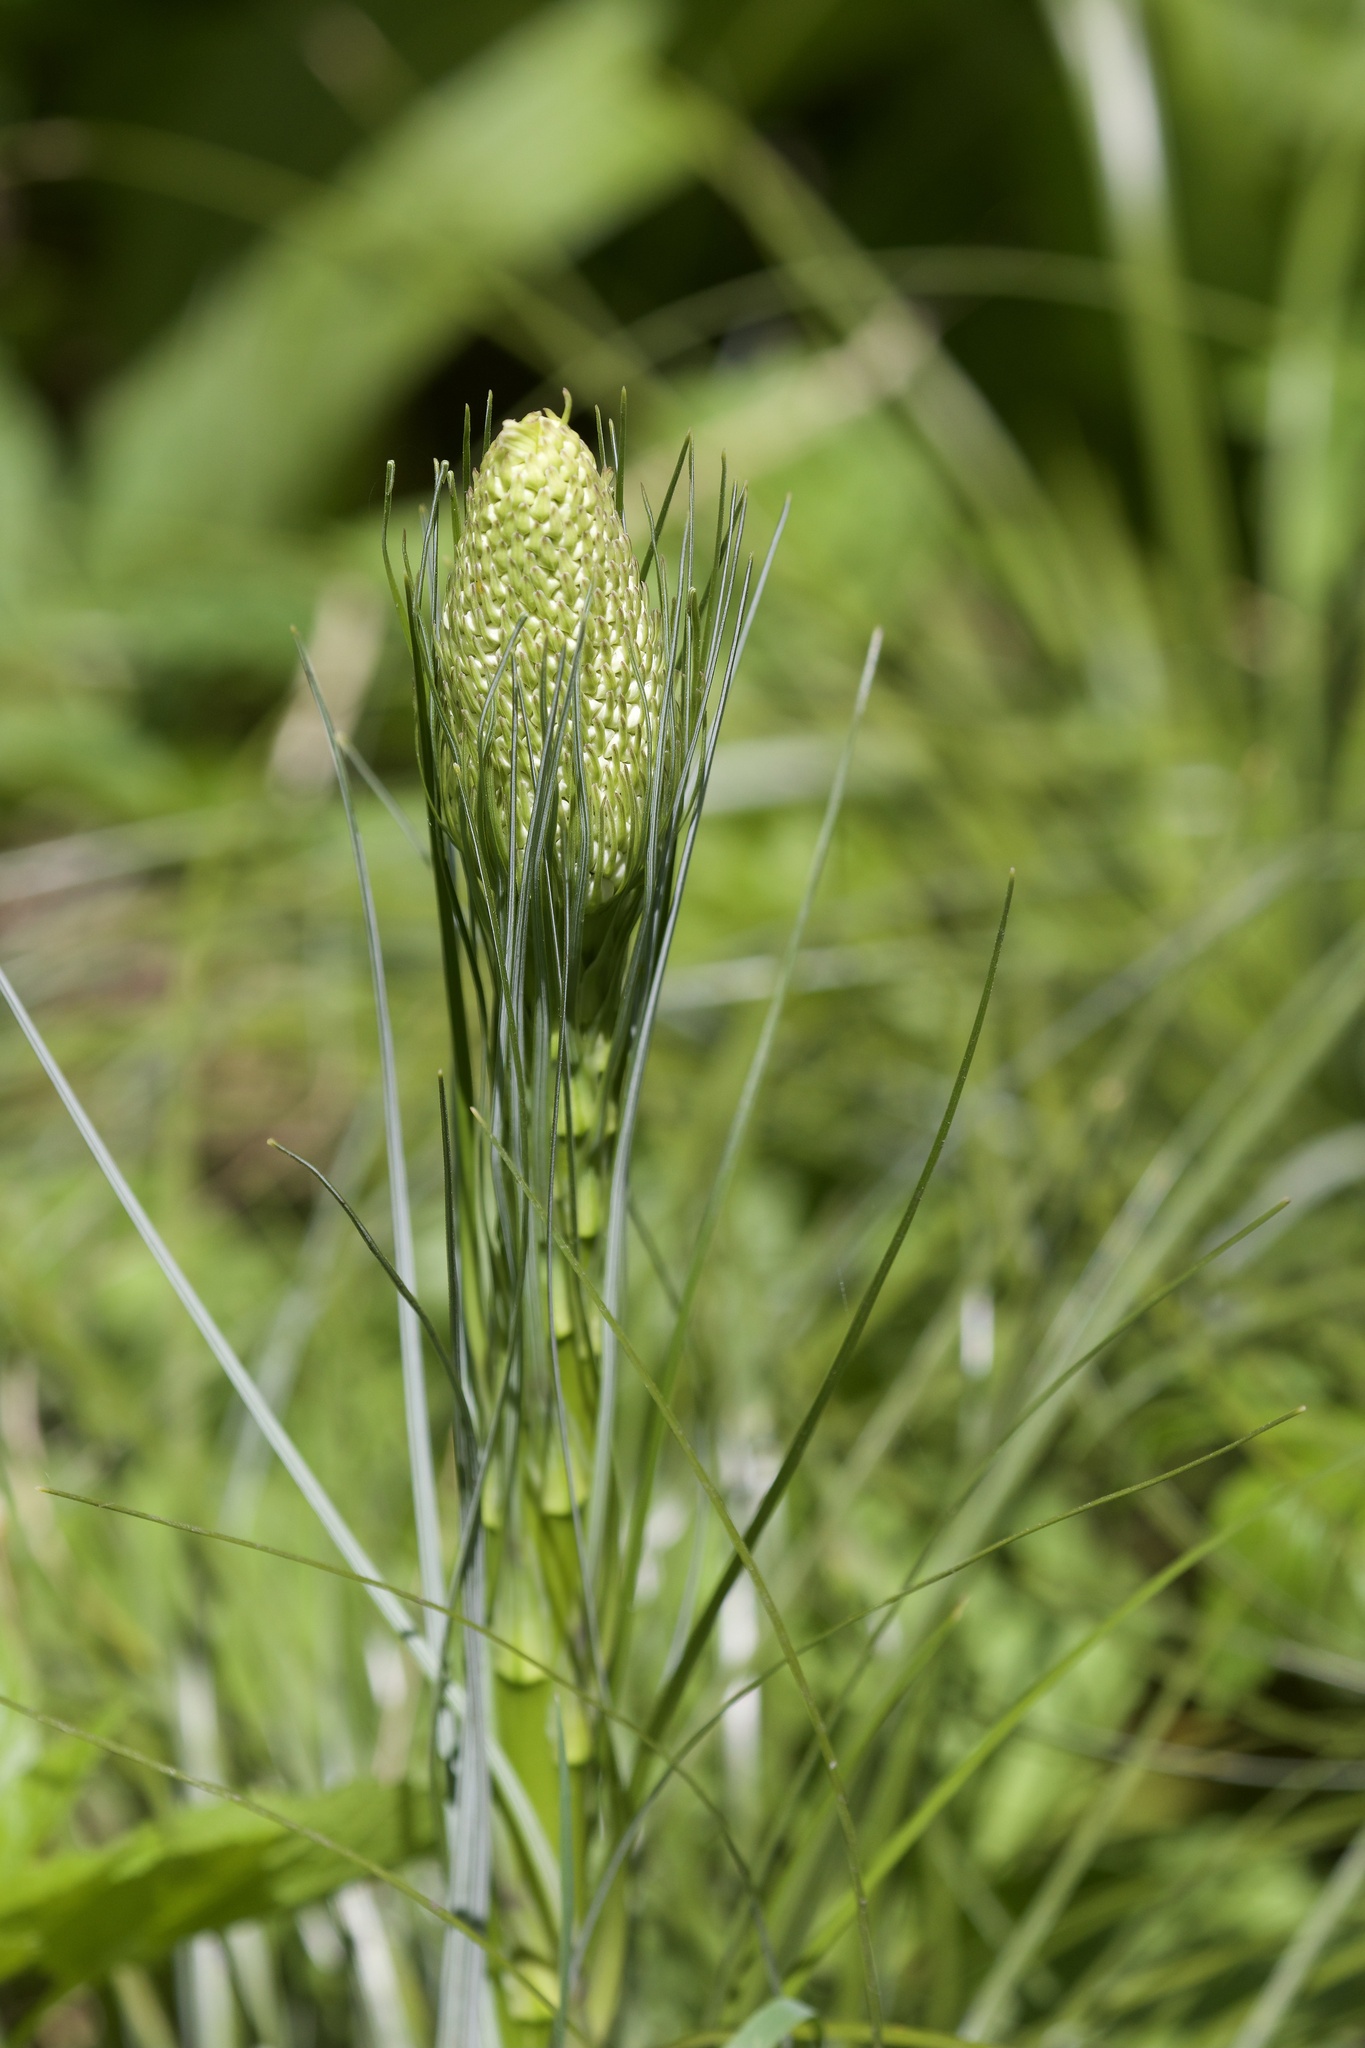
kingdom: Plantae
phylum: Tracheophyta
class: Liliopsida
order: Liliales
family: Melanthiaceae
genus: Xerophyllum
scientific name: Xerophyllum tenax
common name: Bear-grass
